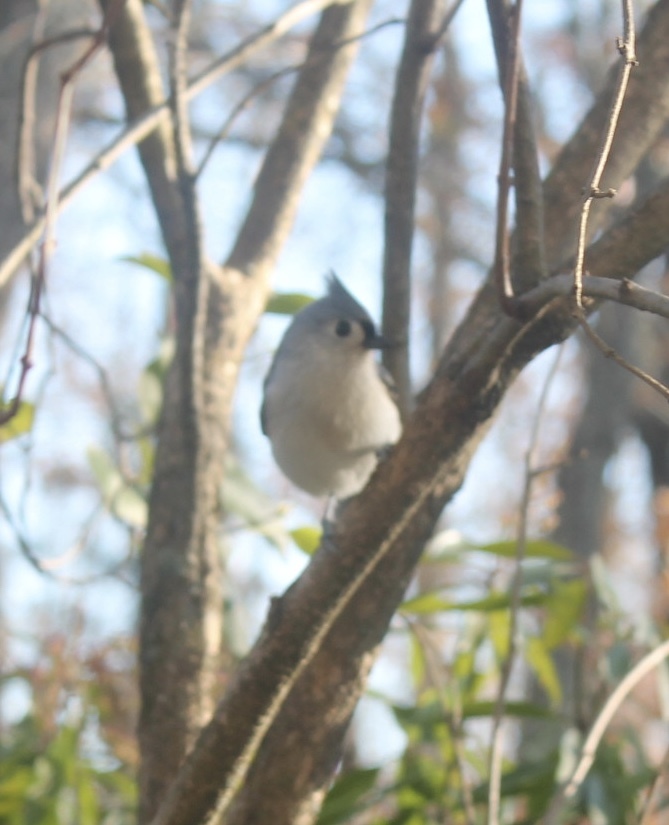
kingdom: Animalia
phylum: Chordata
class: Aves
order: Passeriformes
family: Paridae
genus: Baeolophus
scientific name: Baeolophus bicolor
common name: Tufted titmouse
